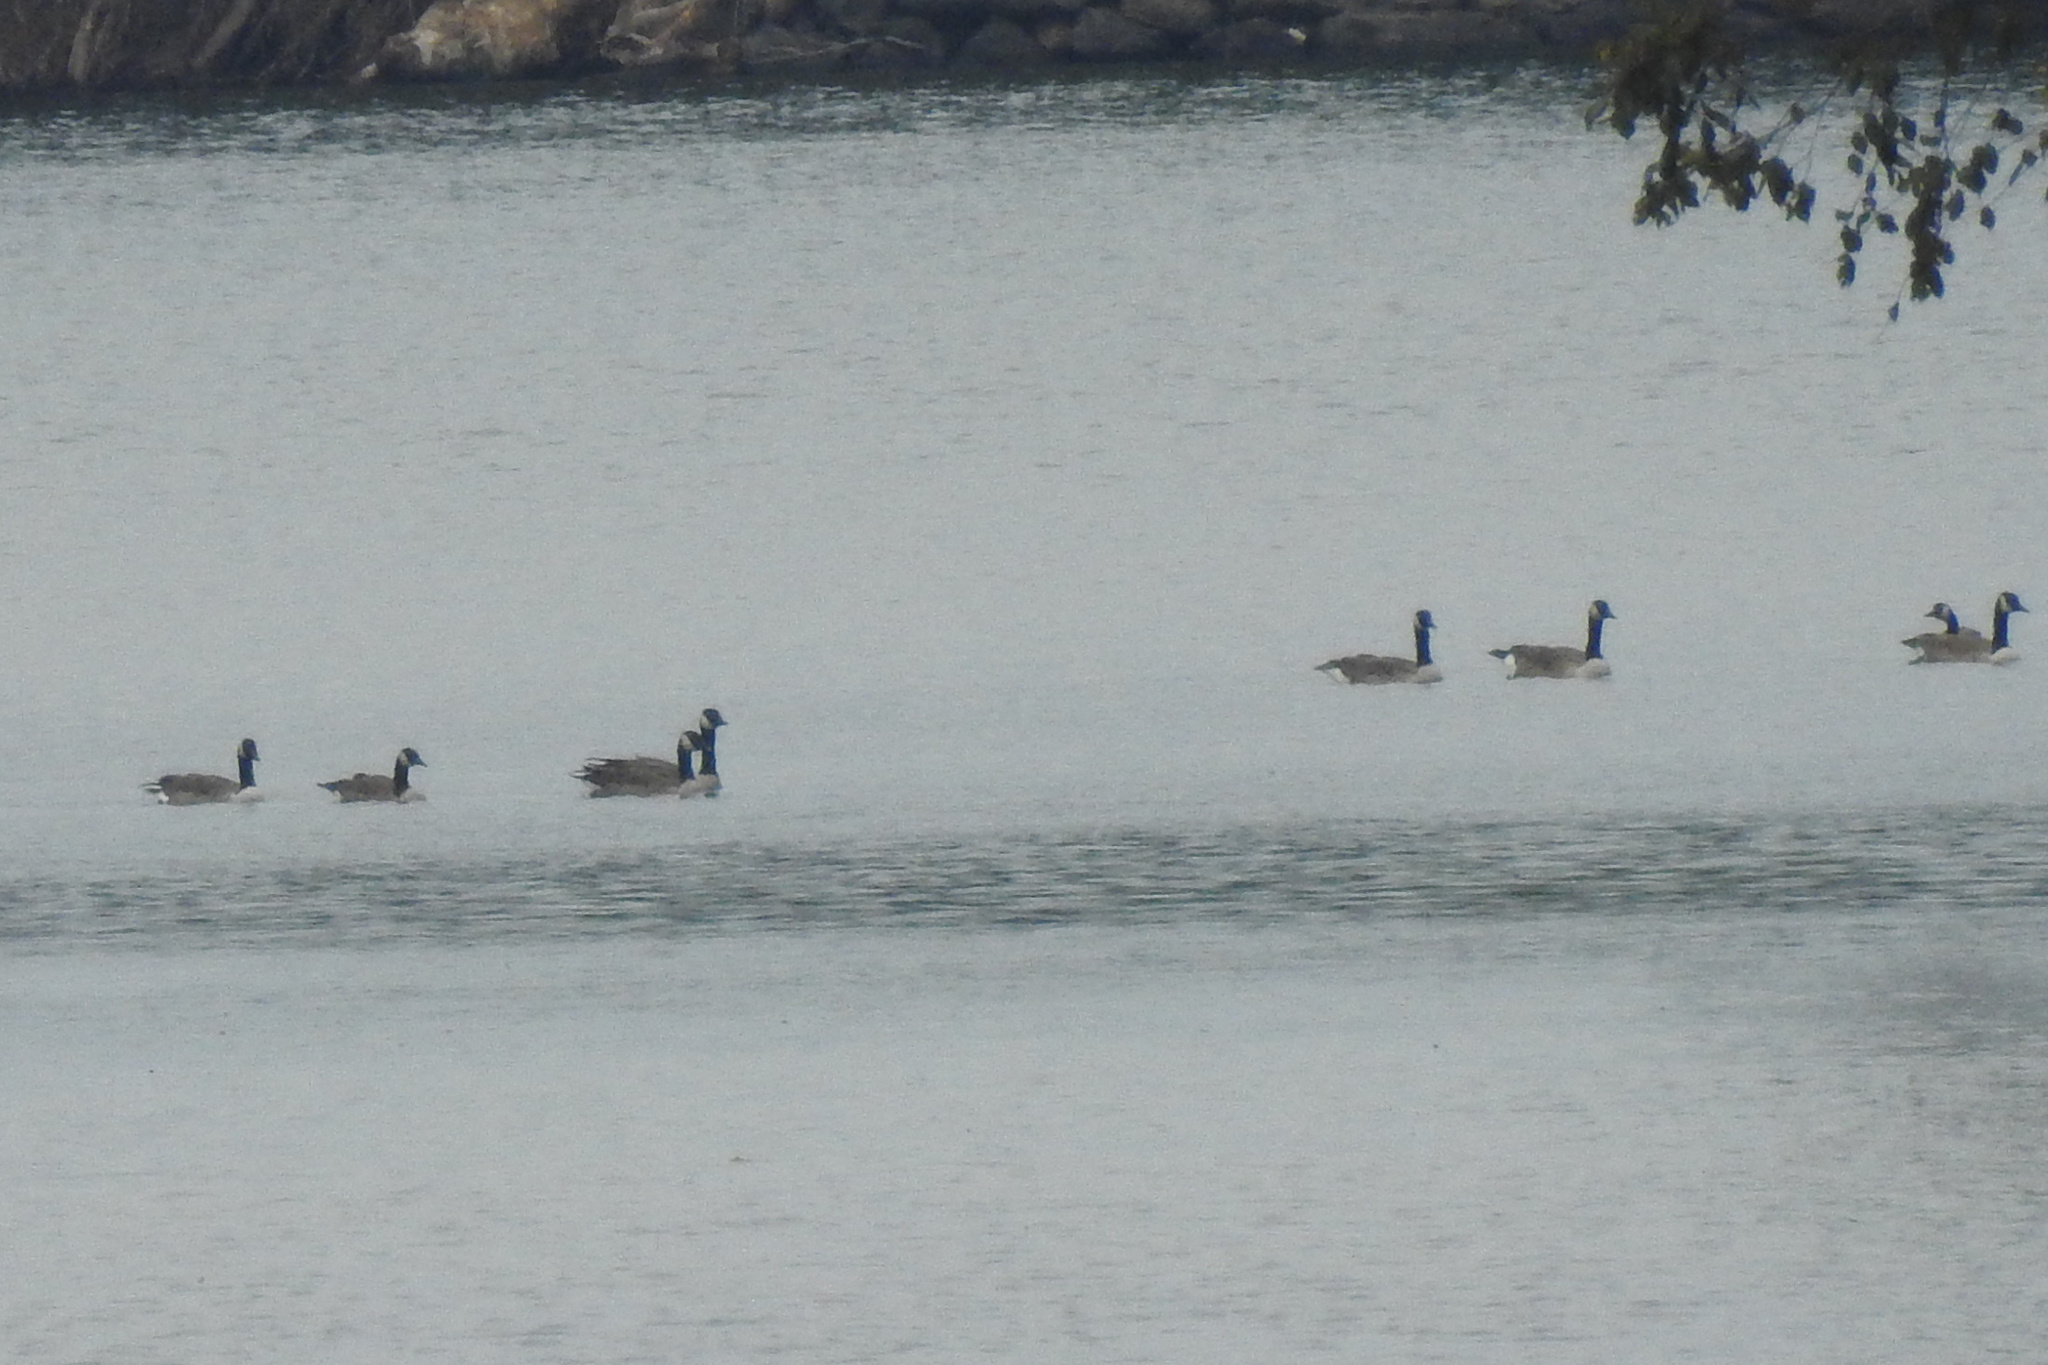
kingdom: Animalia
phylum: Chordata
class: Aves
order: Anseriformes
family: Anatidae
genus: Branta
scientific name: Branta canadensis
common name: Canada goose
